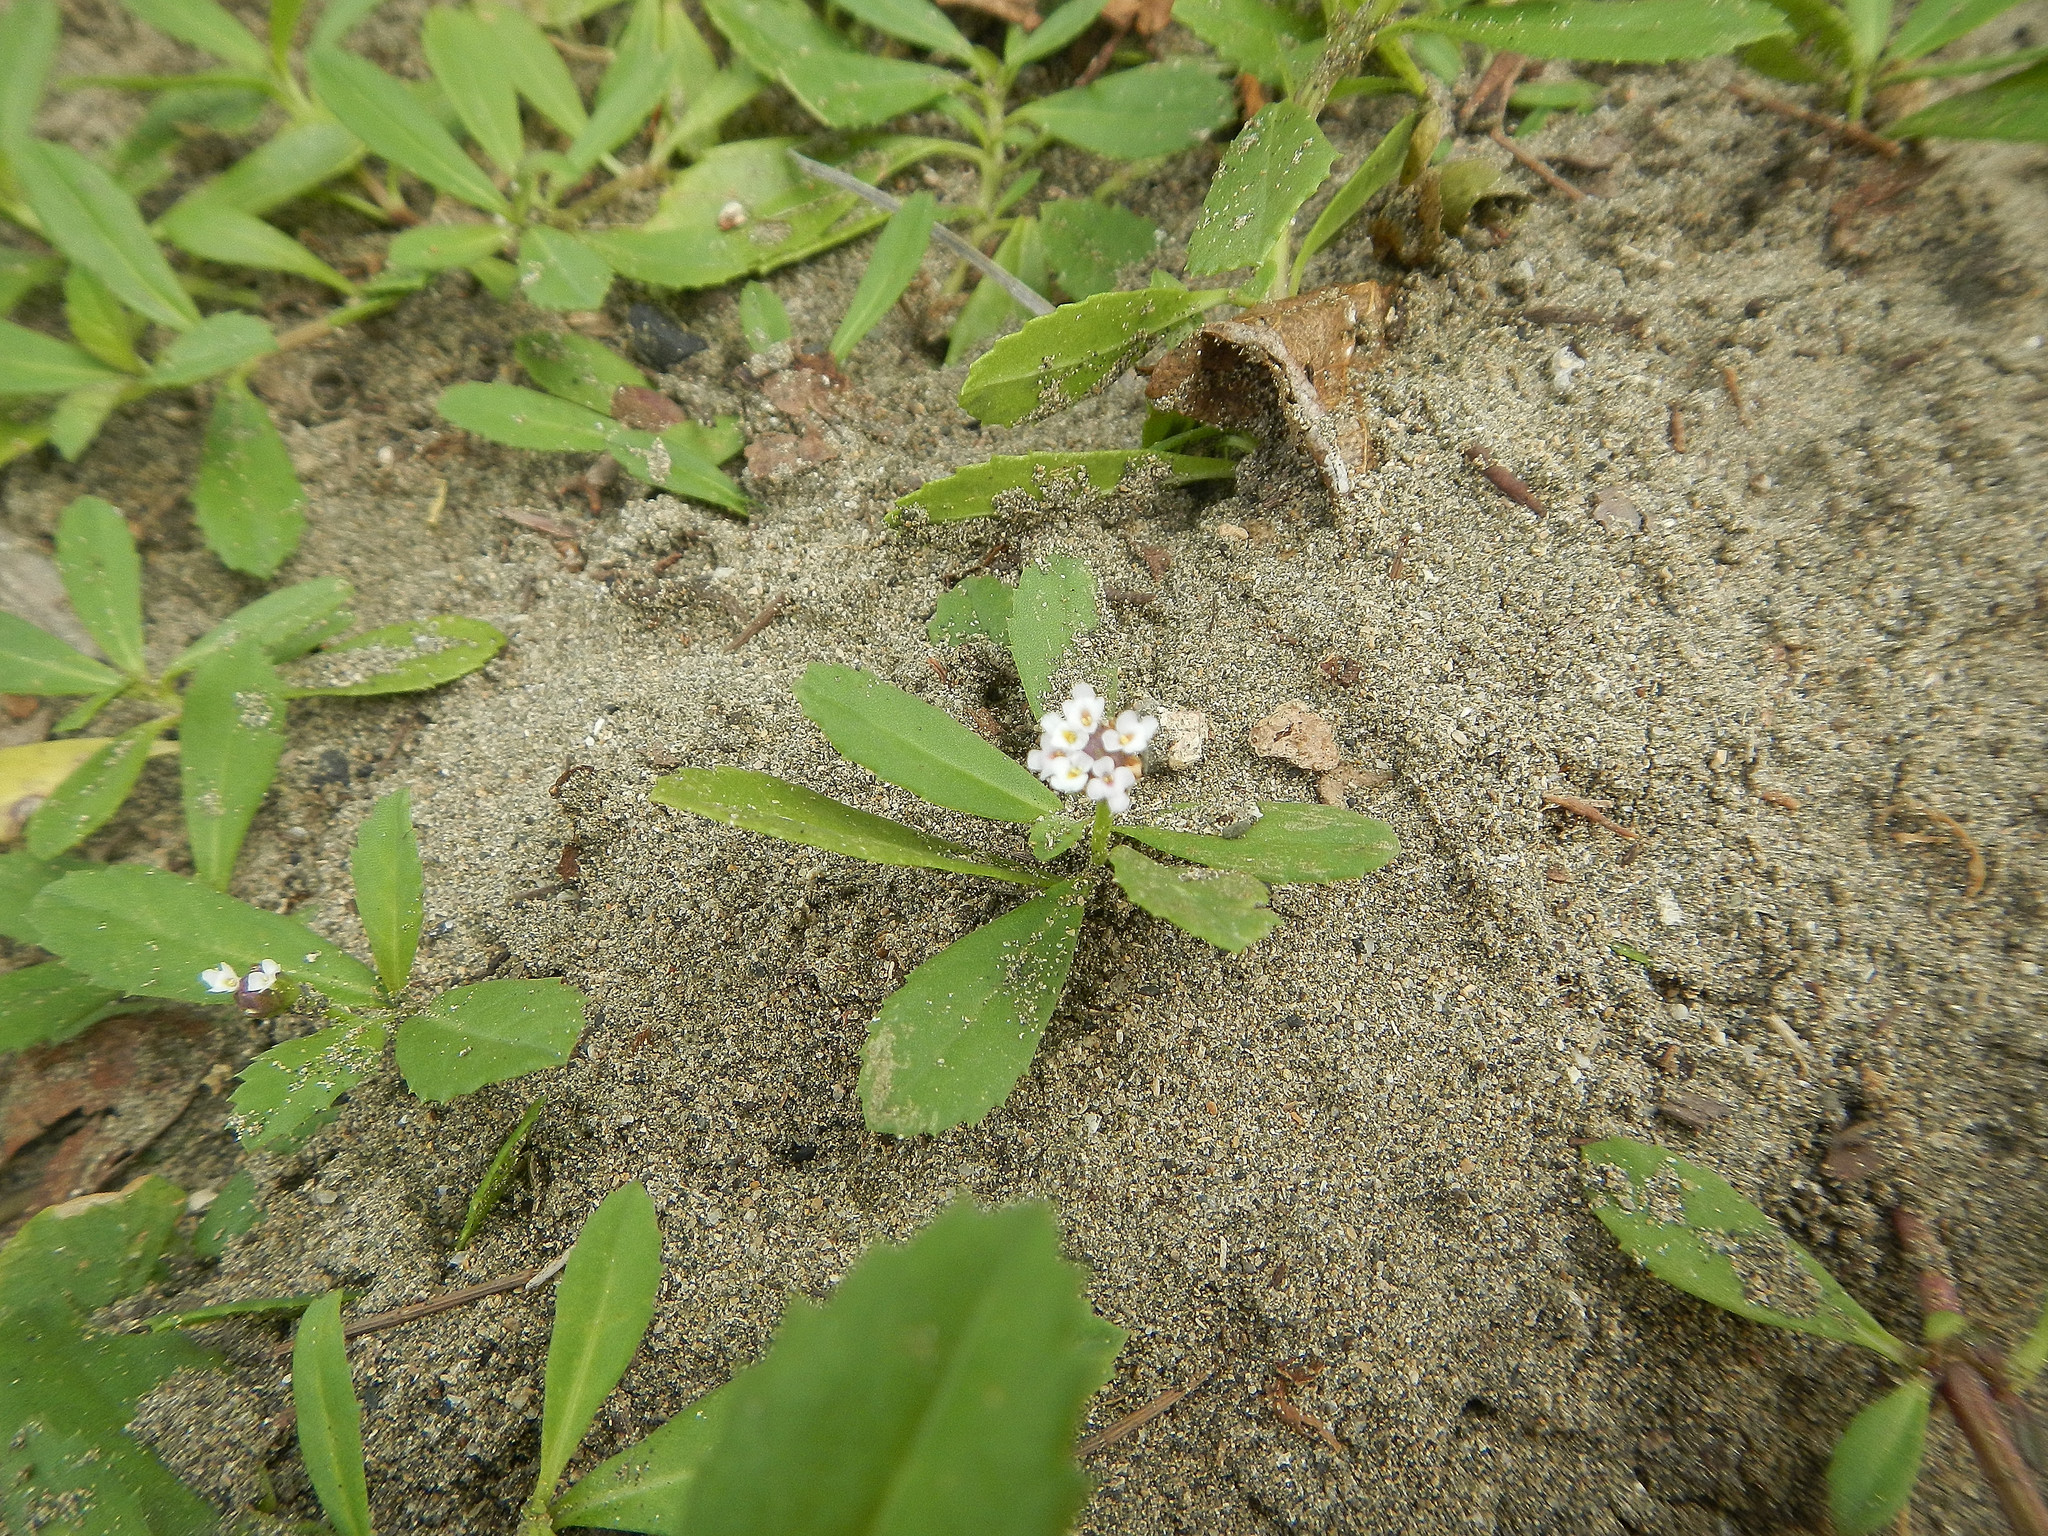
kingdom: Plantae
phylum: Tracheophyta
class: Magnoliopsida
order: Lamiales
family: Verbenaceae
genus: Phyla
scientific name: Phyla nodiflora
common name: Frogfruit
